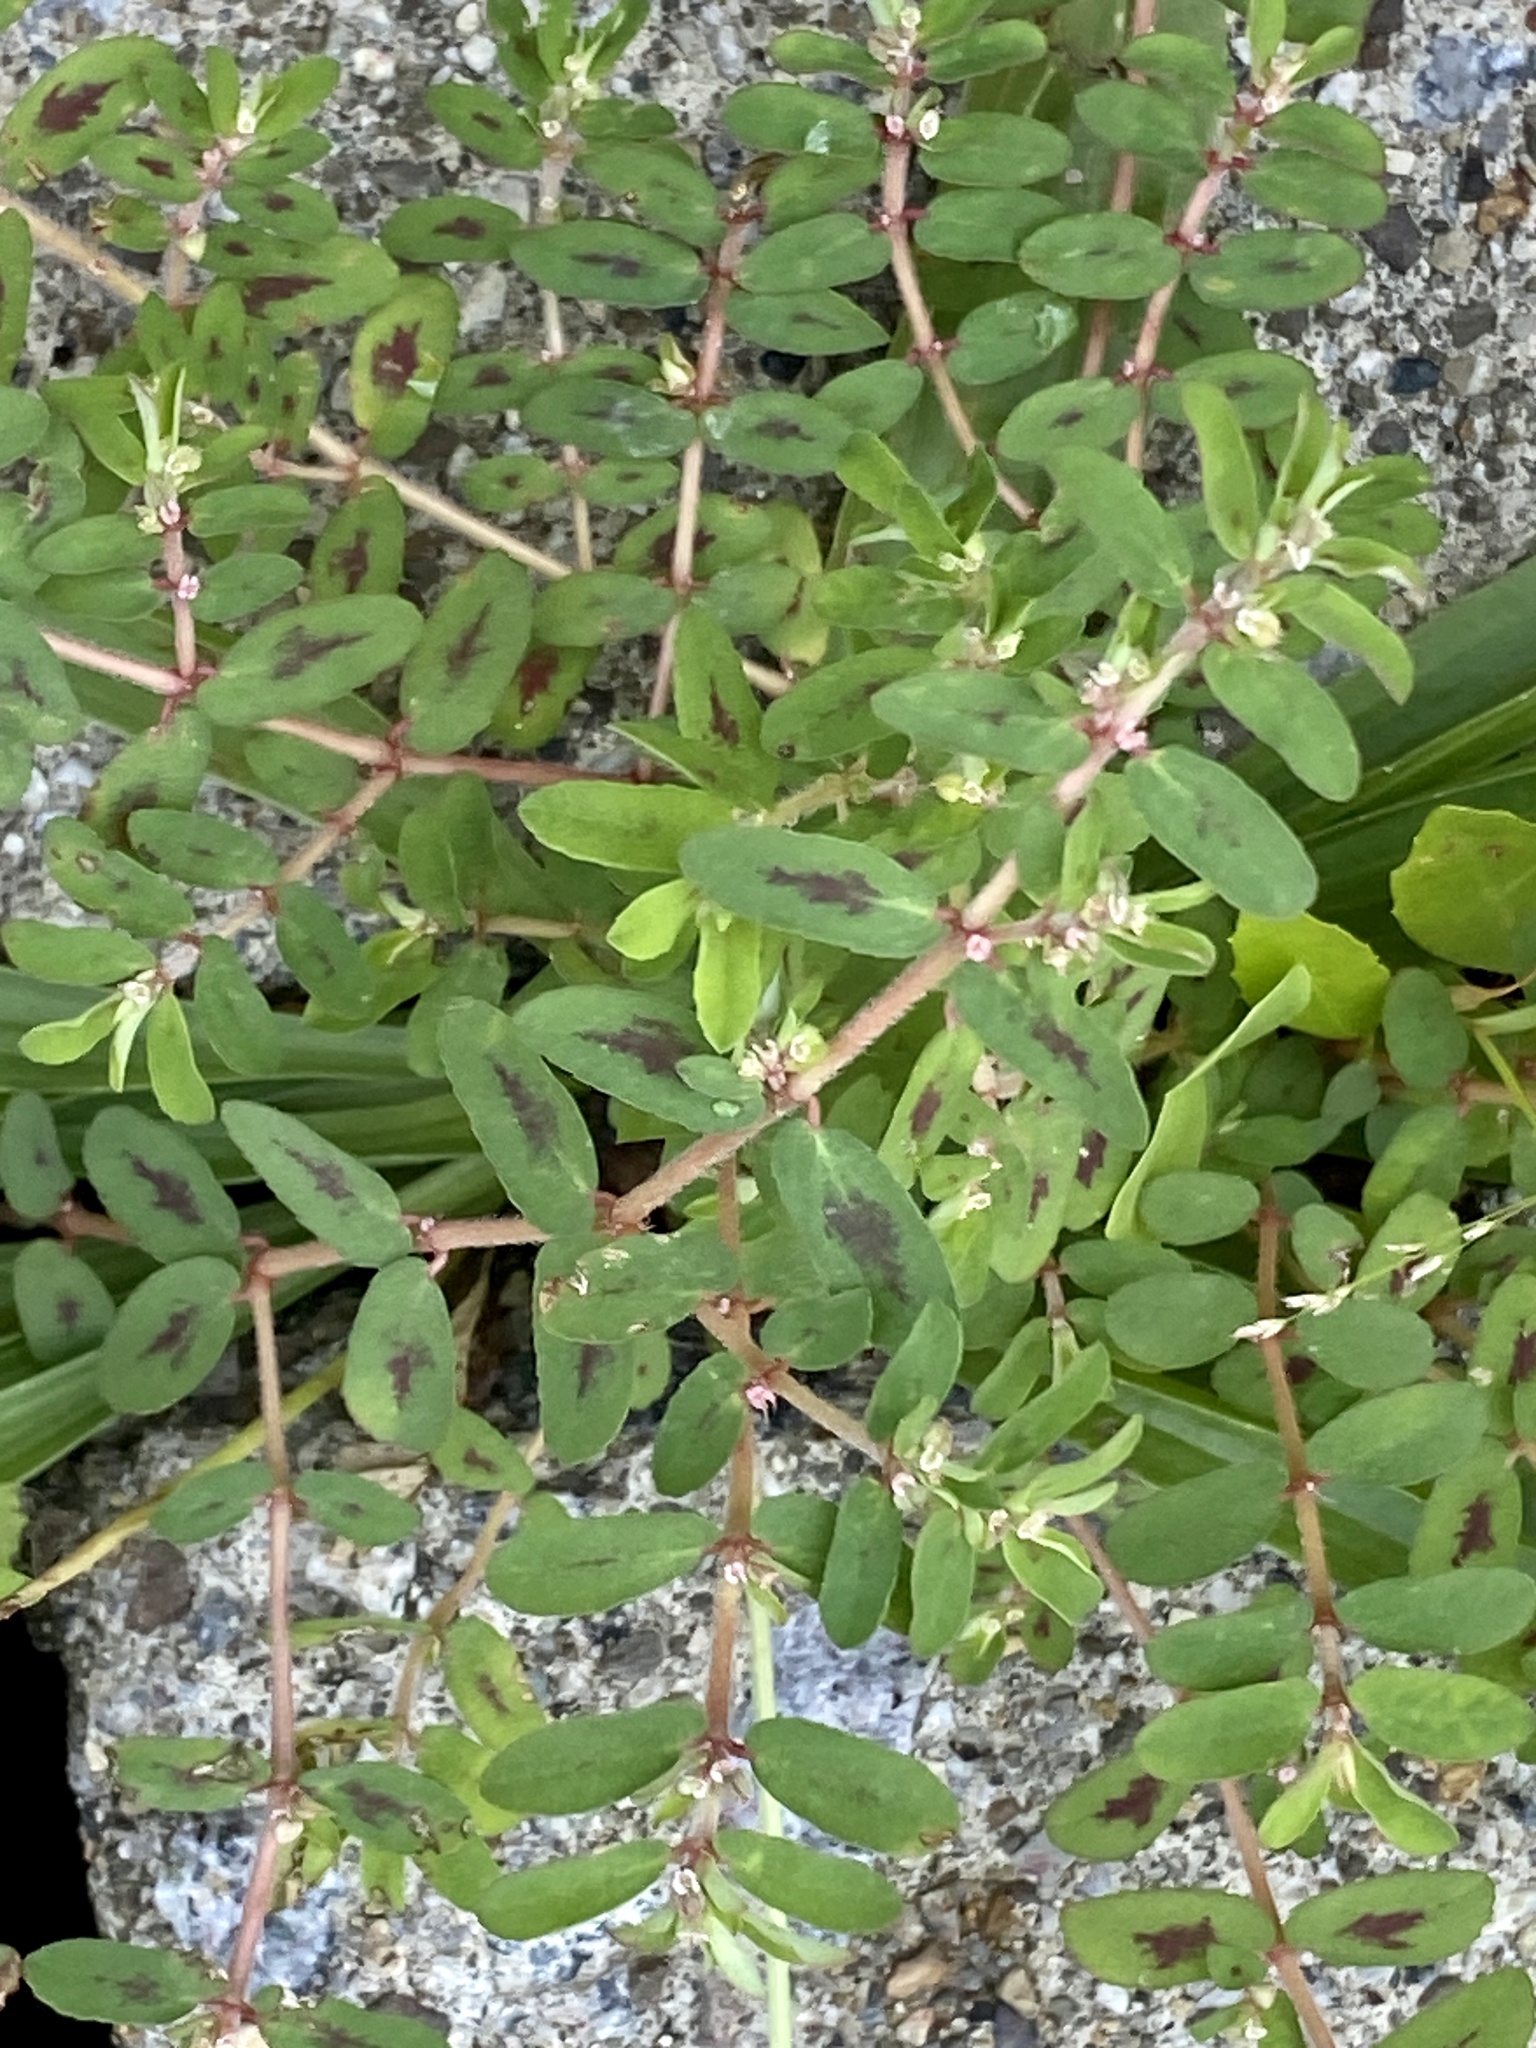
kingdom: Plantae
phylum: Tracheophyta
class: Magnoliopsida
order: Malpighiales
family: Euphorbiaceae
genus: Euphorbia
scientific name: Euphorbia maculata
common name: Spotted spurge
